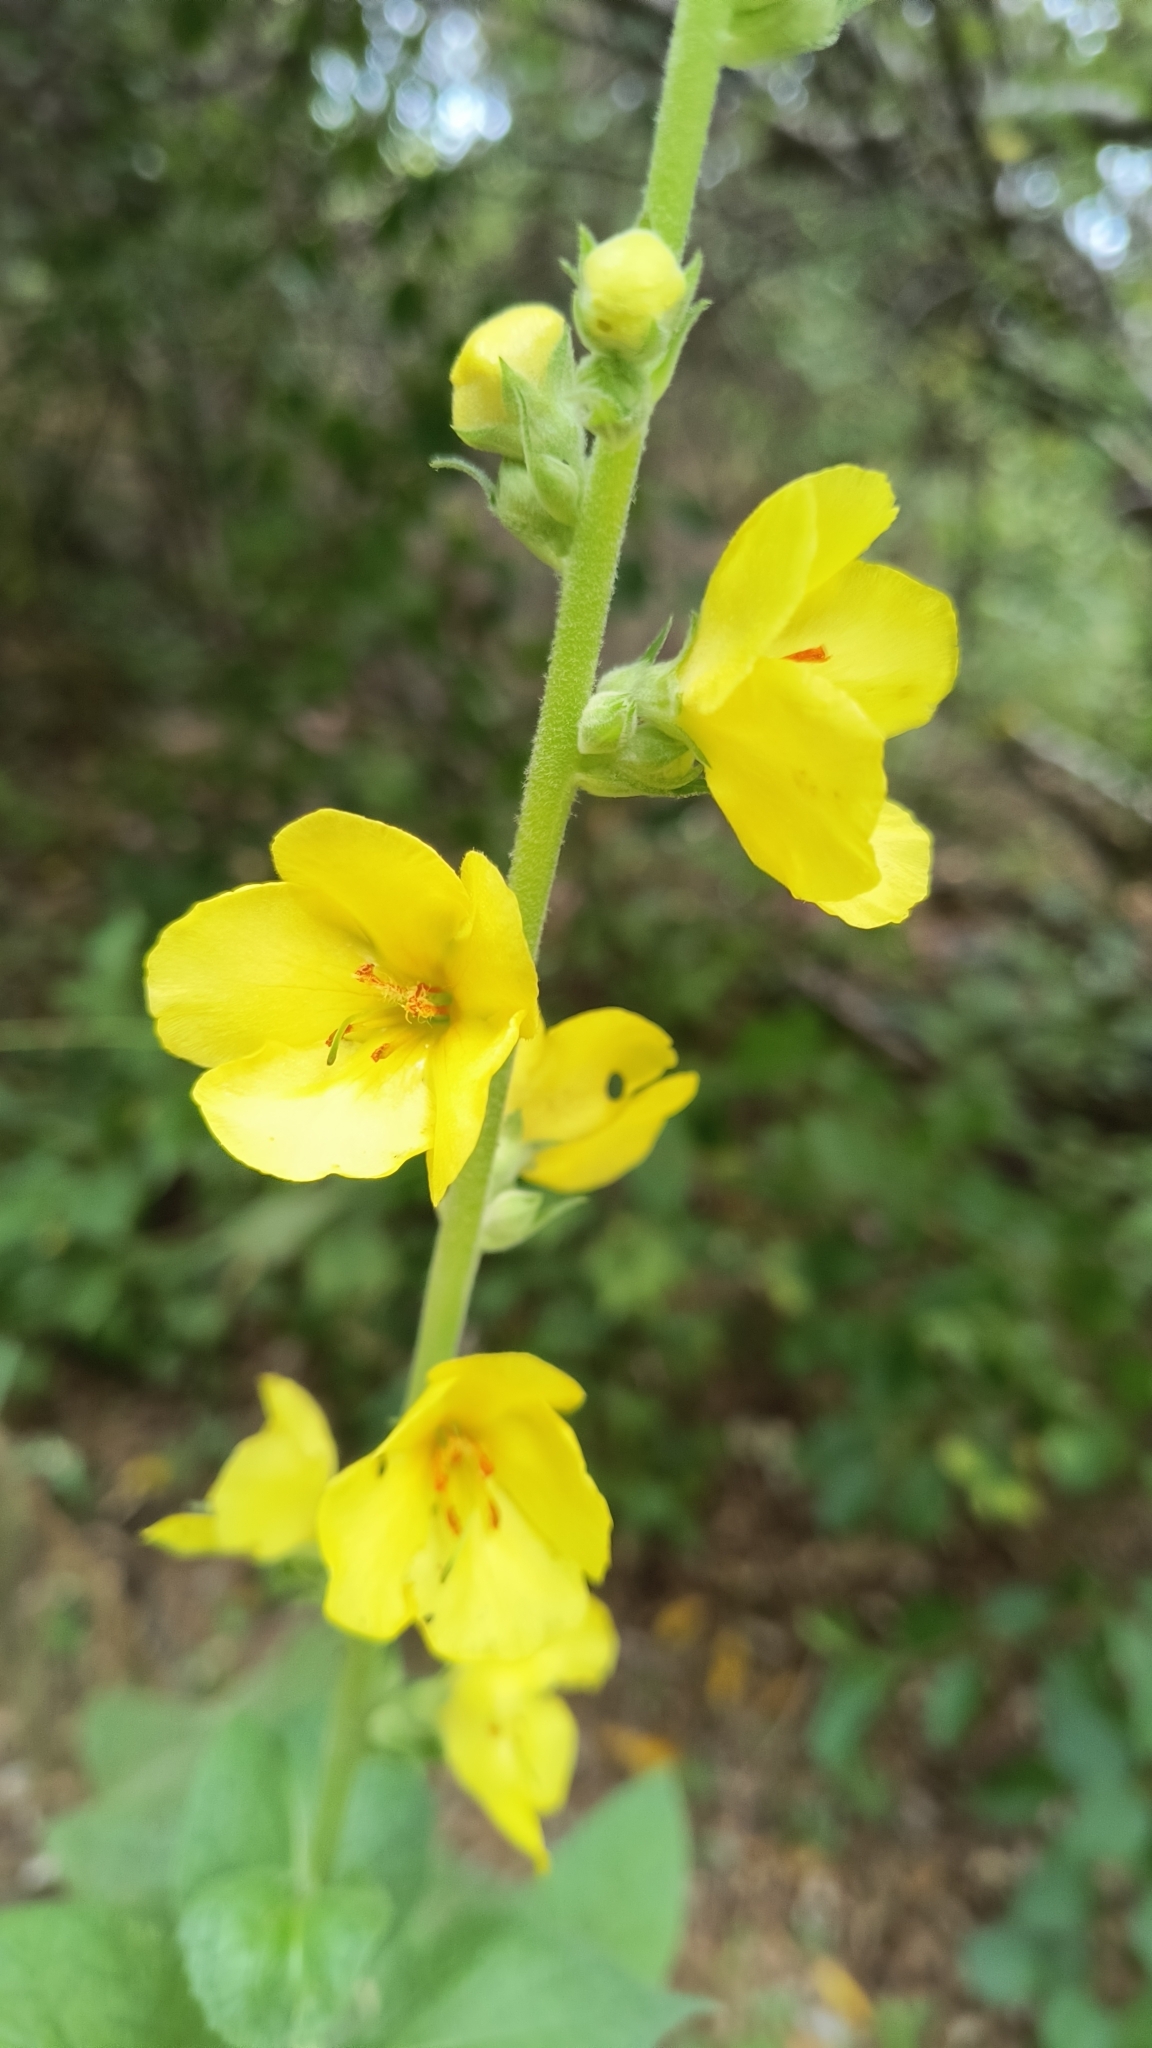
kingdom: Plantae
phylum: Tracheophyta
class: Magnoliopsida
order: Lamiales
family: Scrophulariaceae
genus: Verbascum
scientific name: Verbascum phlomoides
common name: Orange mullein
